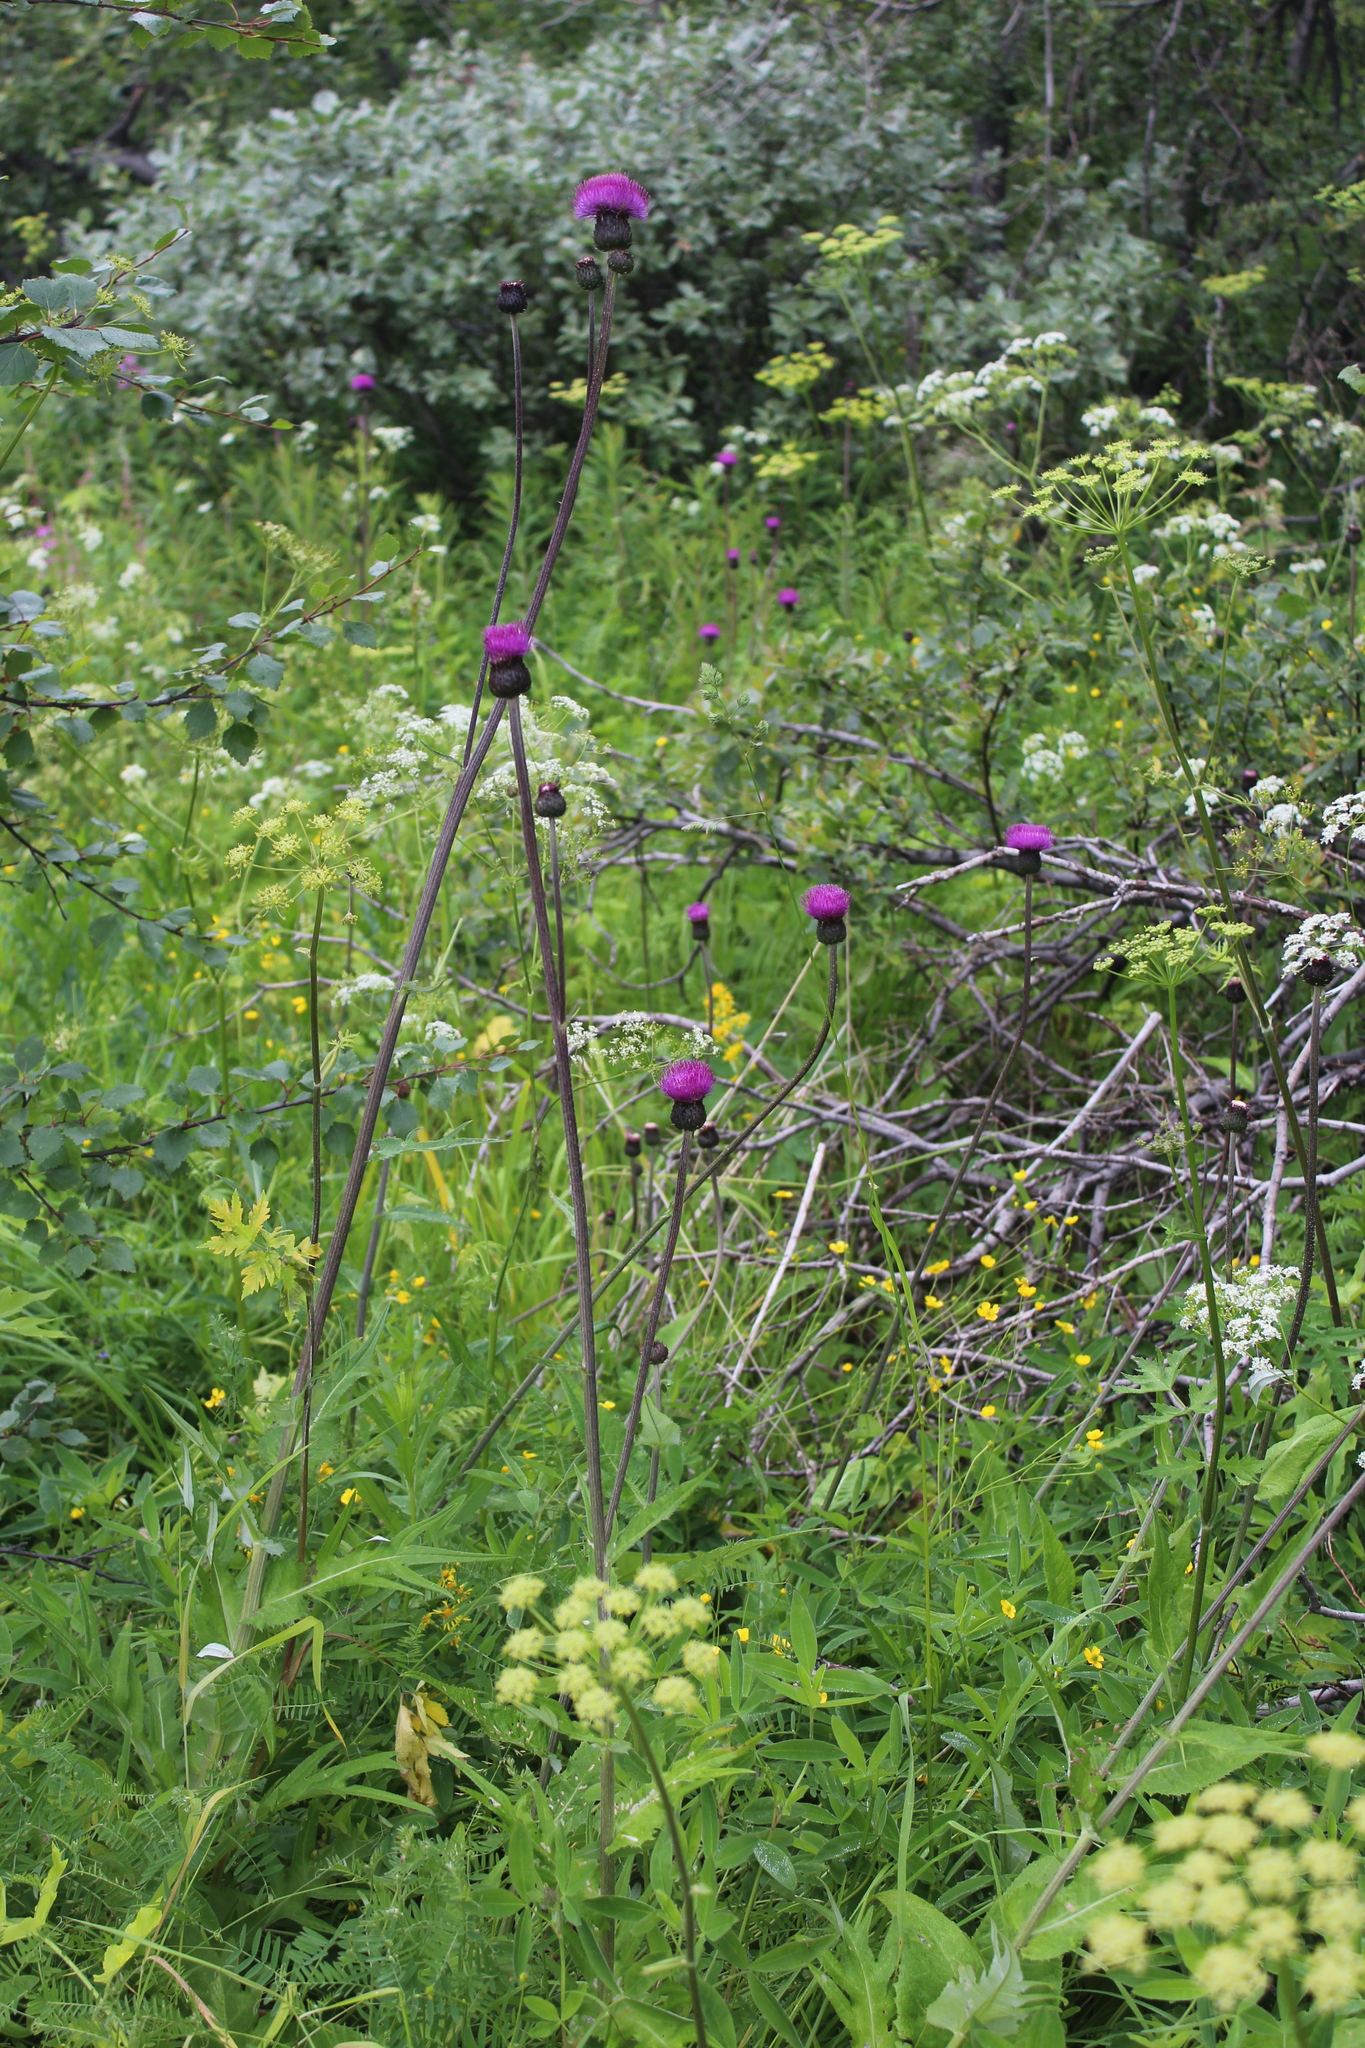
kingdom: Plantae
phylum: Tracheophyta
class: Magnoliopsida
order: Asterales
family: Asteraceae
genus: Cirsium
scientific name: Cirsium heterophyllum
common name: Melancholy thistle
